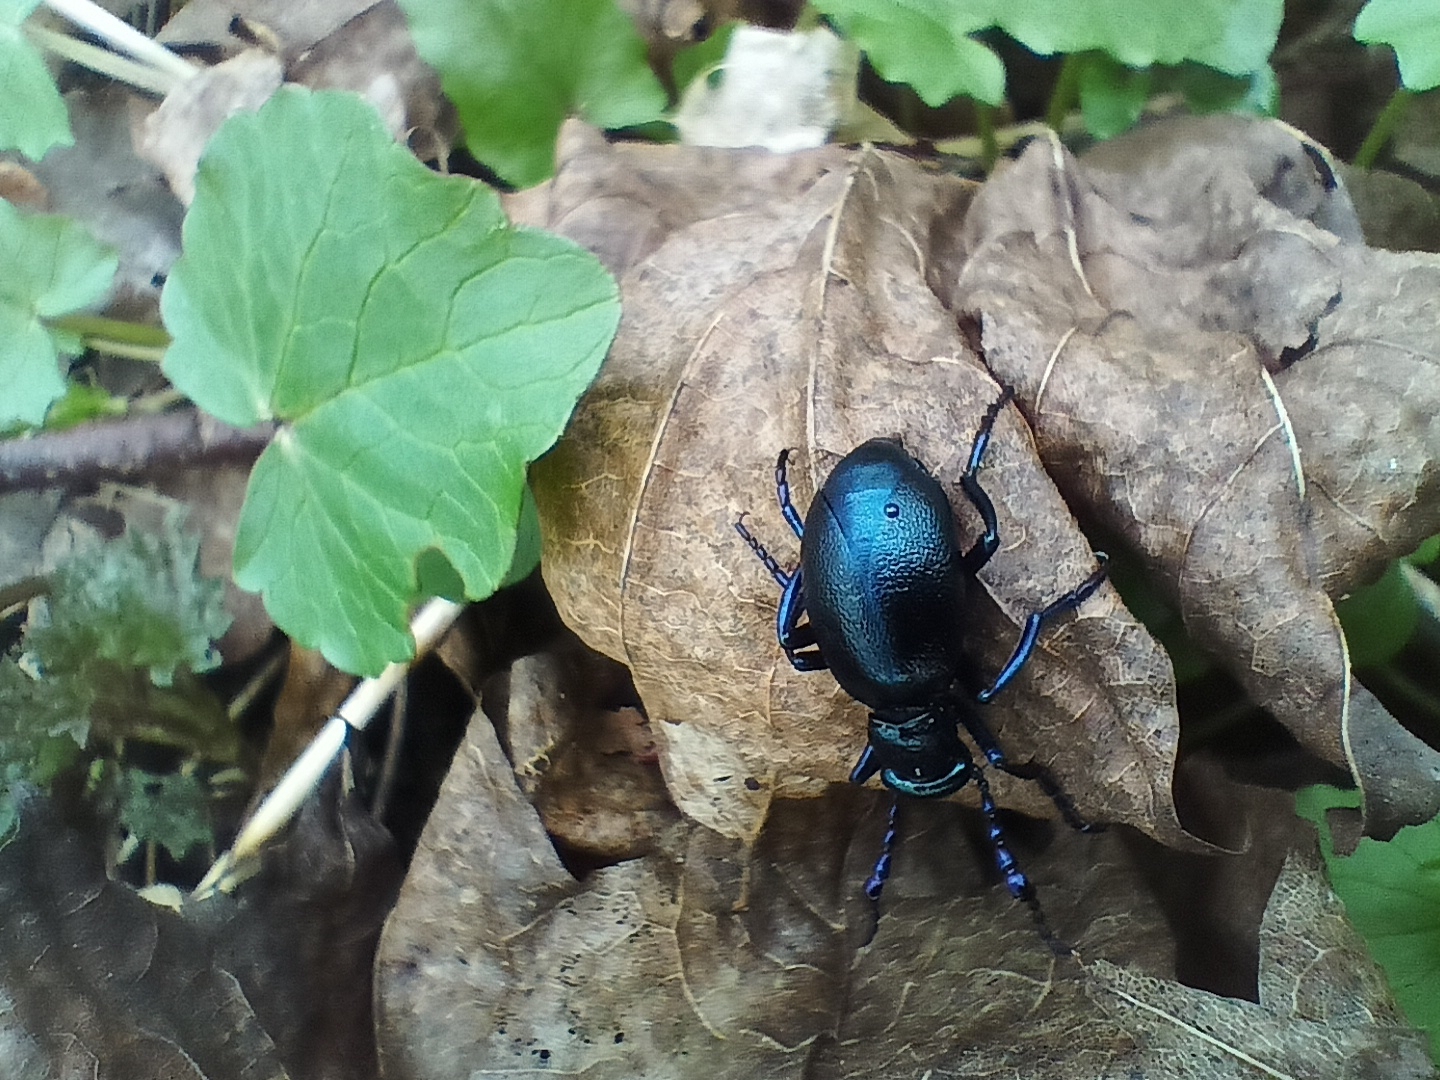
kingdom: Animalia
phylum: Arthropoda
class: Insecta
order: Coleoptera
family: Meloidae
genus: Meloe
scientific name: Meloe violaceus
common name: Violet oil-beetle
